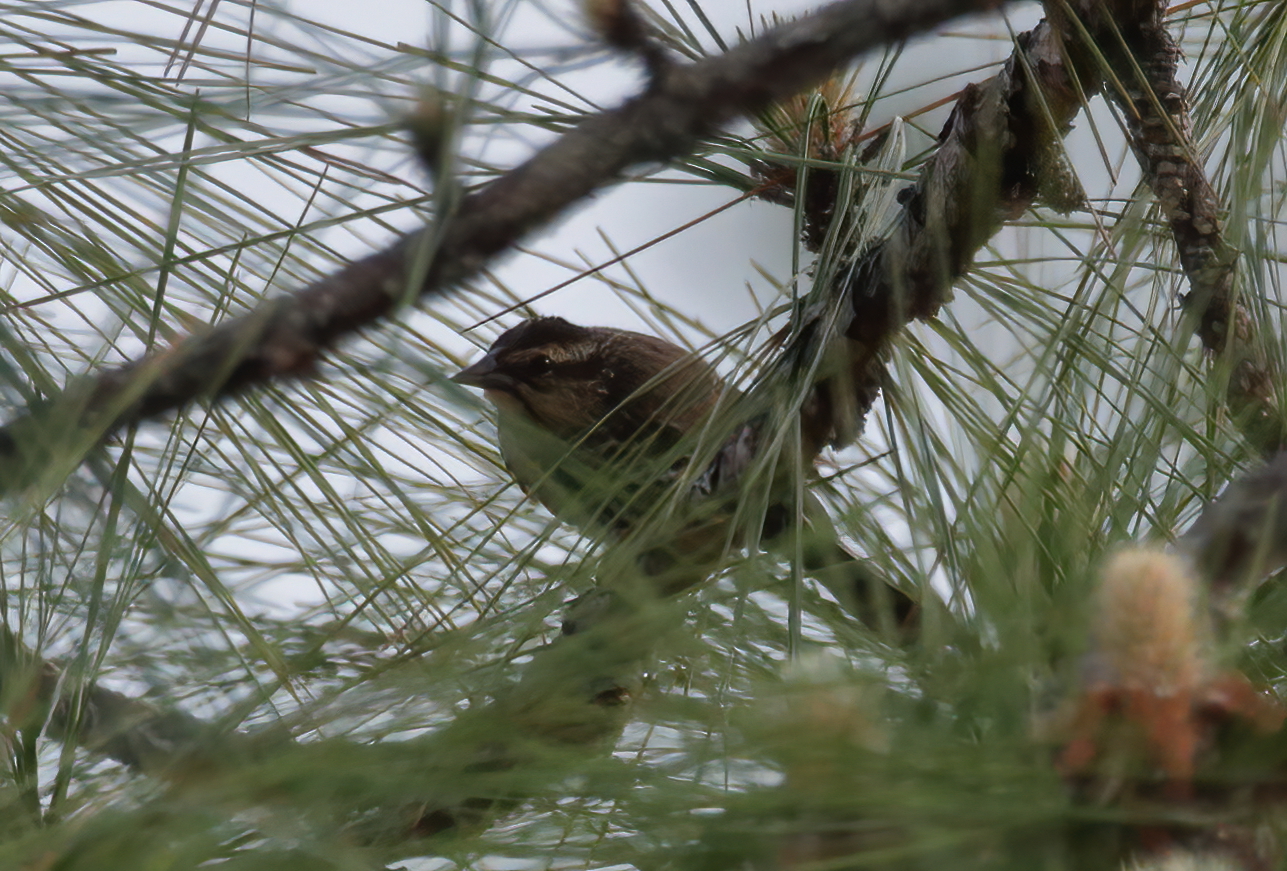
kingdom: Animalia
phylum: Chordata
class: Aves
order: Passeriformes
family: Parulidae
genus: Setophaga
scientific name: Setophaga palmarum
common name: Palm warbler
